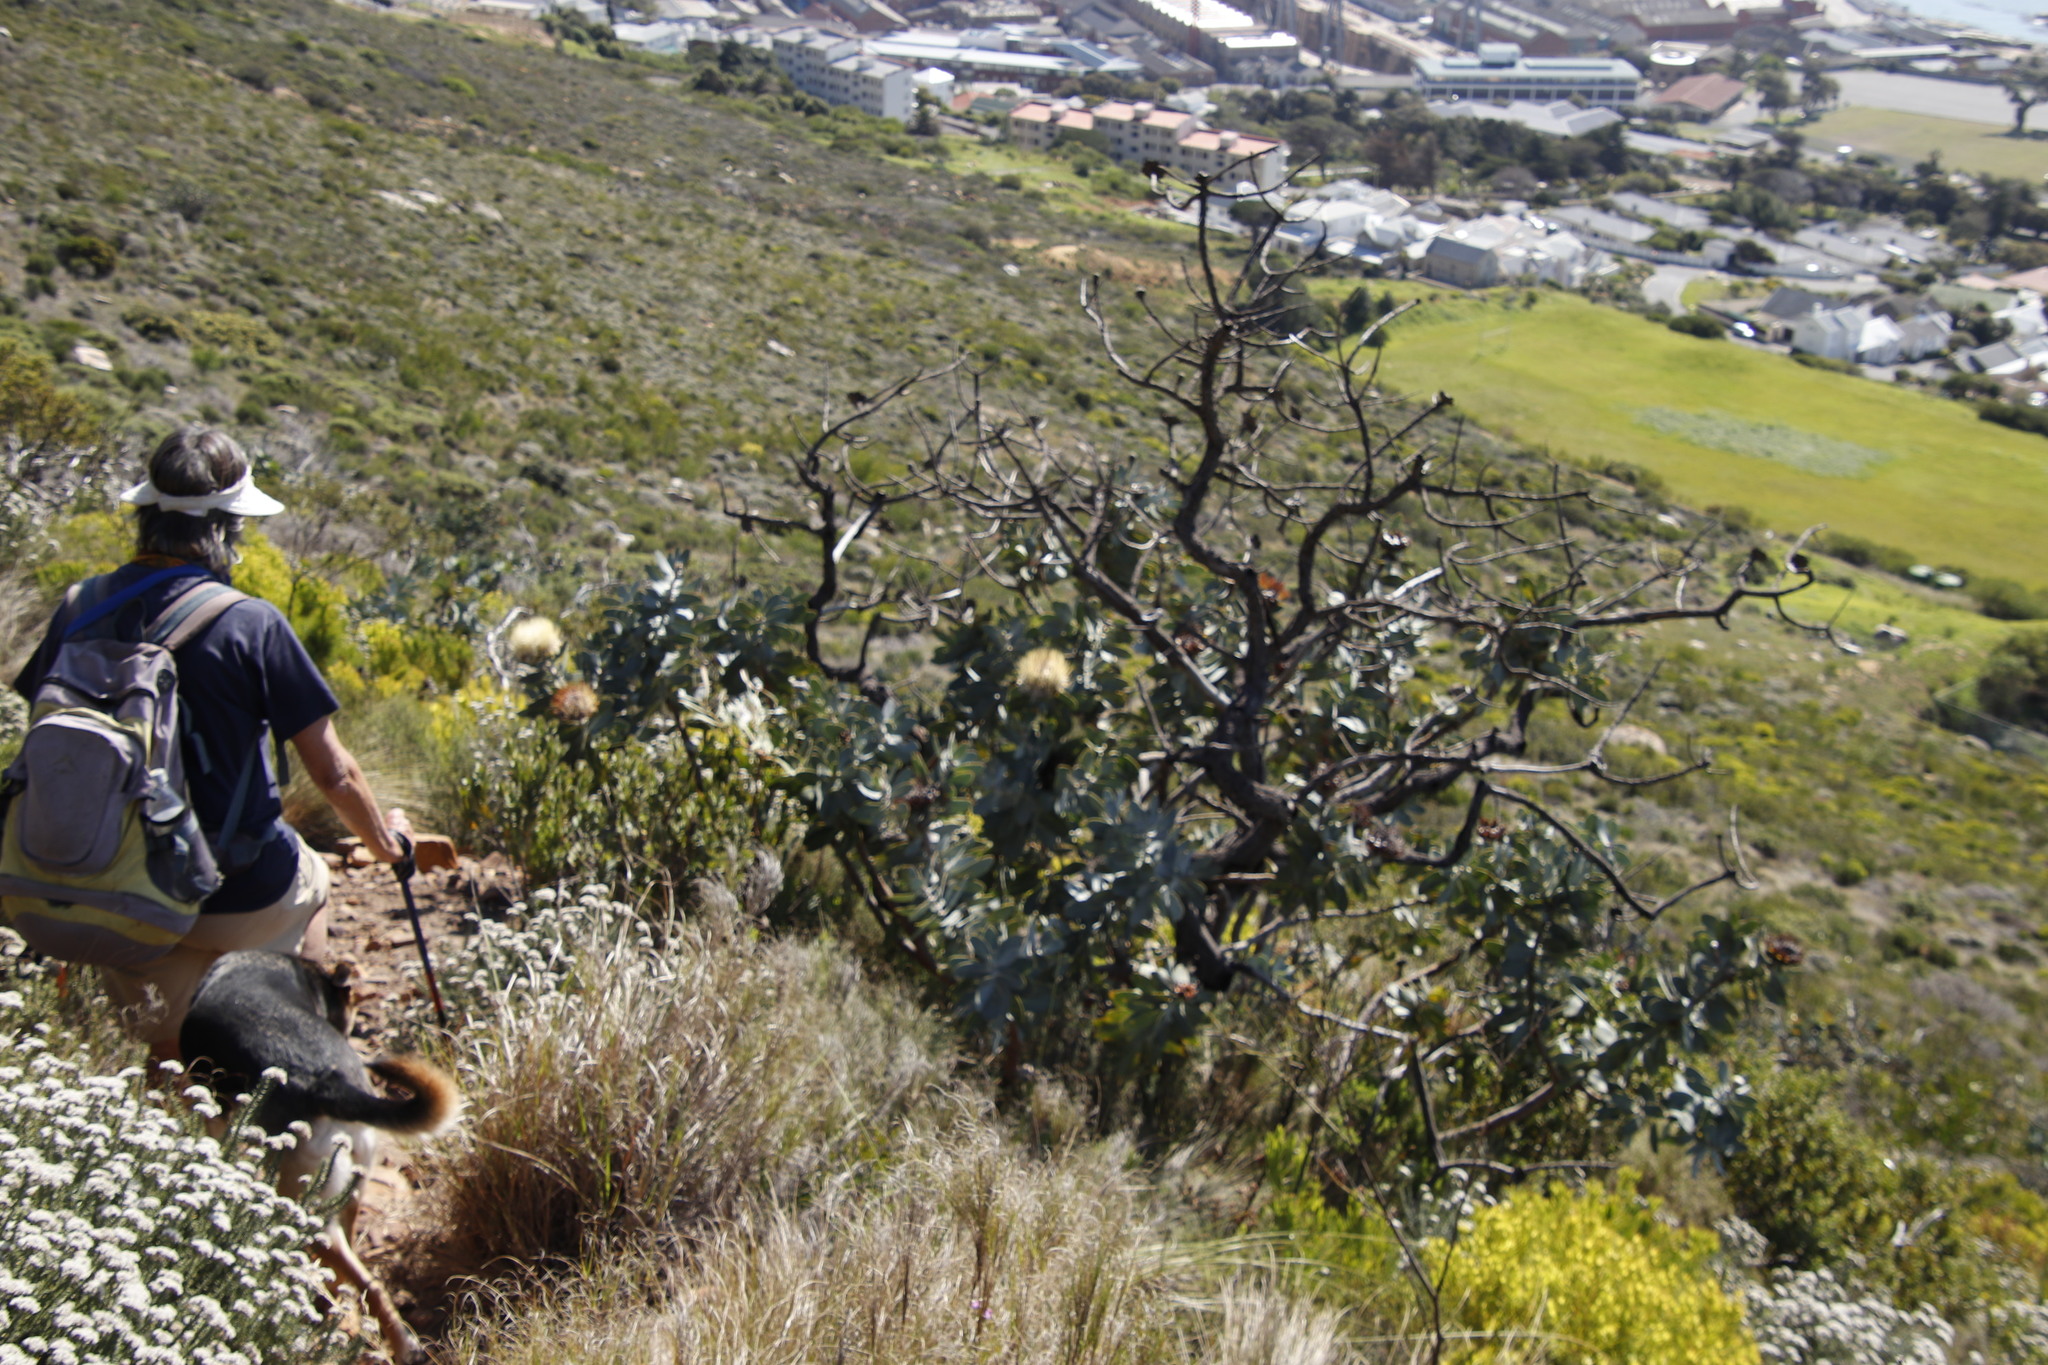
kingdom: Plantae
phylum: Tracheophyta
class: Magnoliopsida
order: Proteales
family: Proteaceae
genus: Protea
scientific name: Protea nitida
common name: Tree protea
